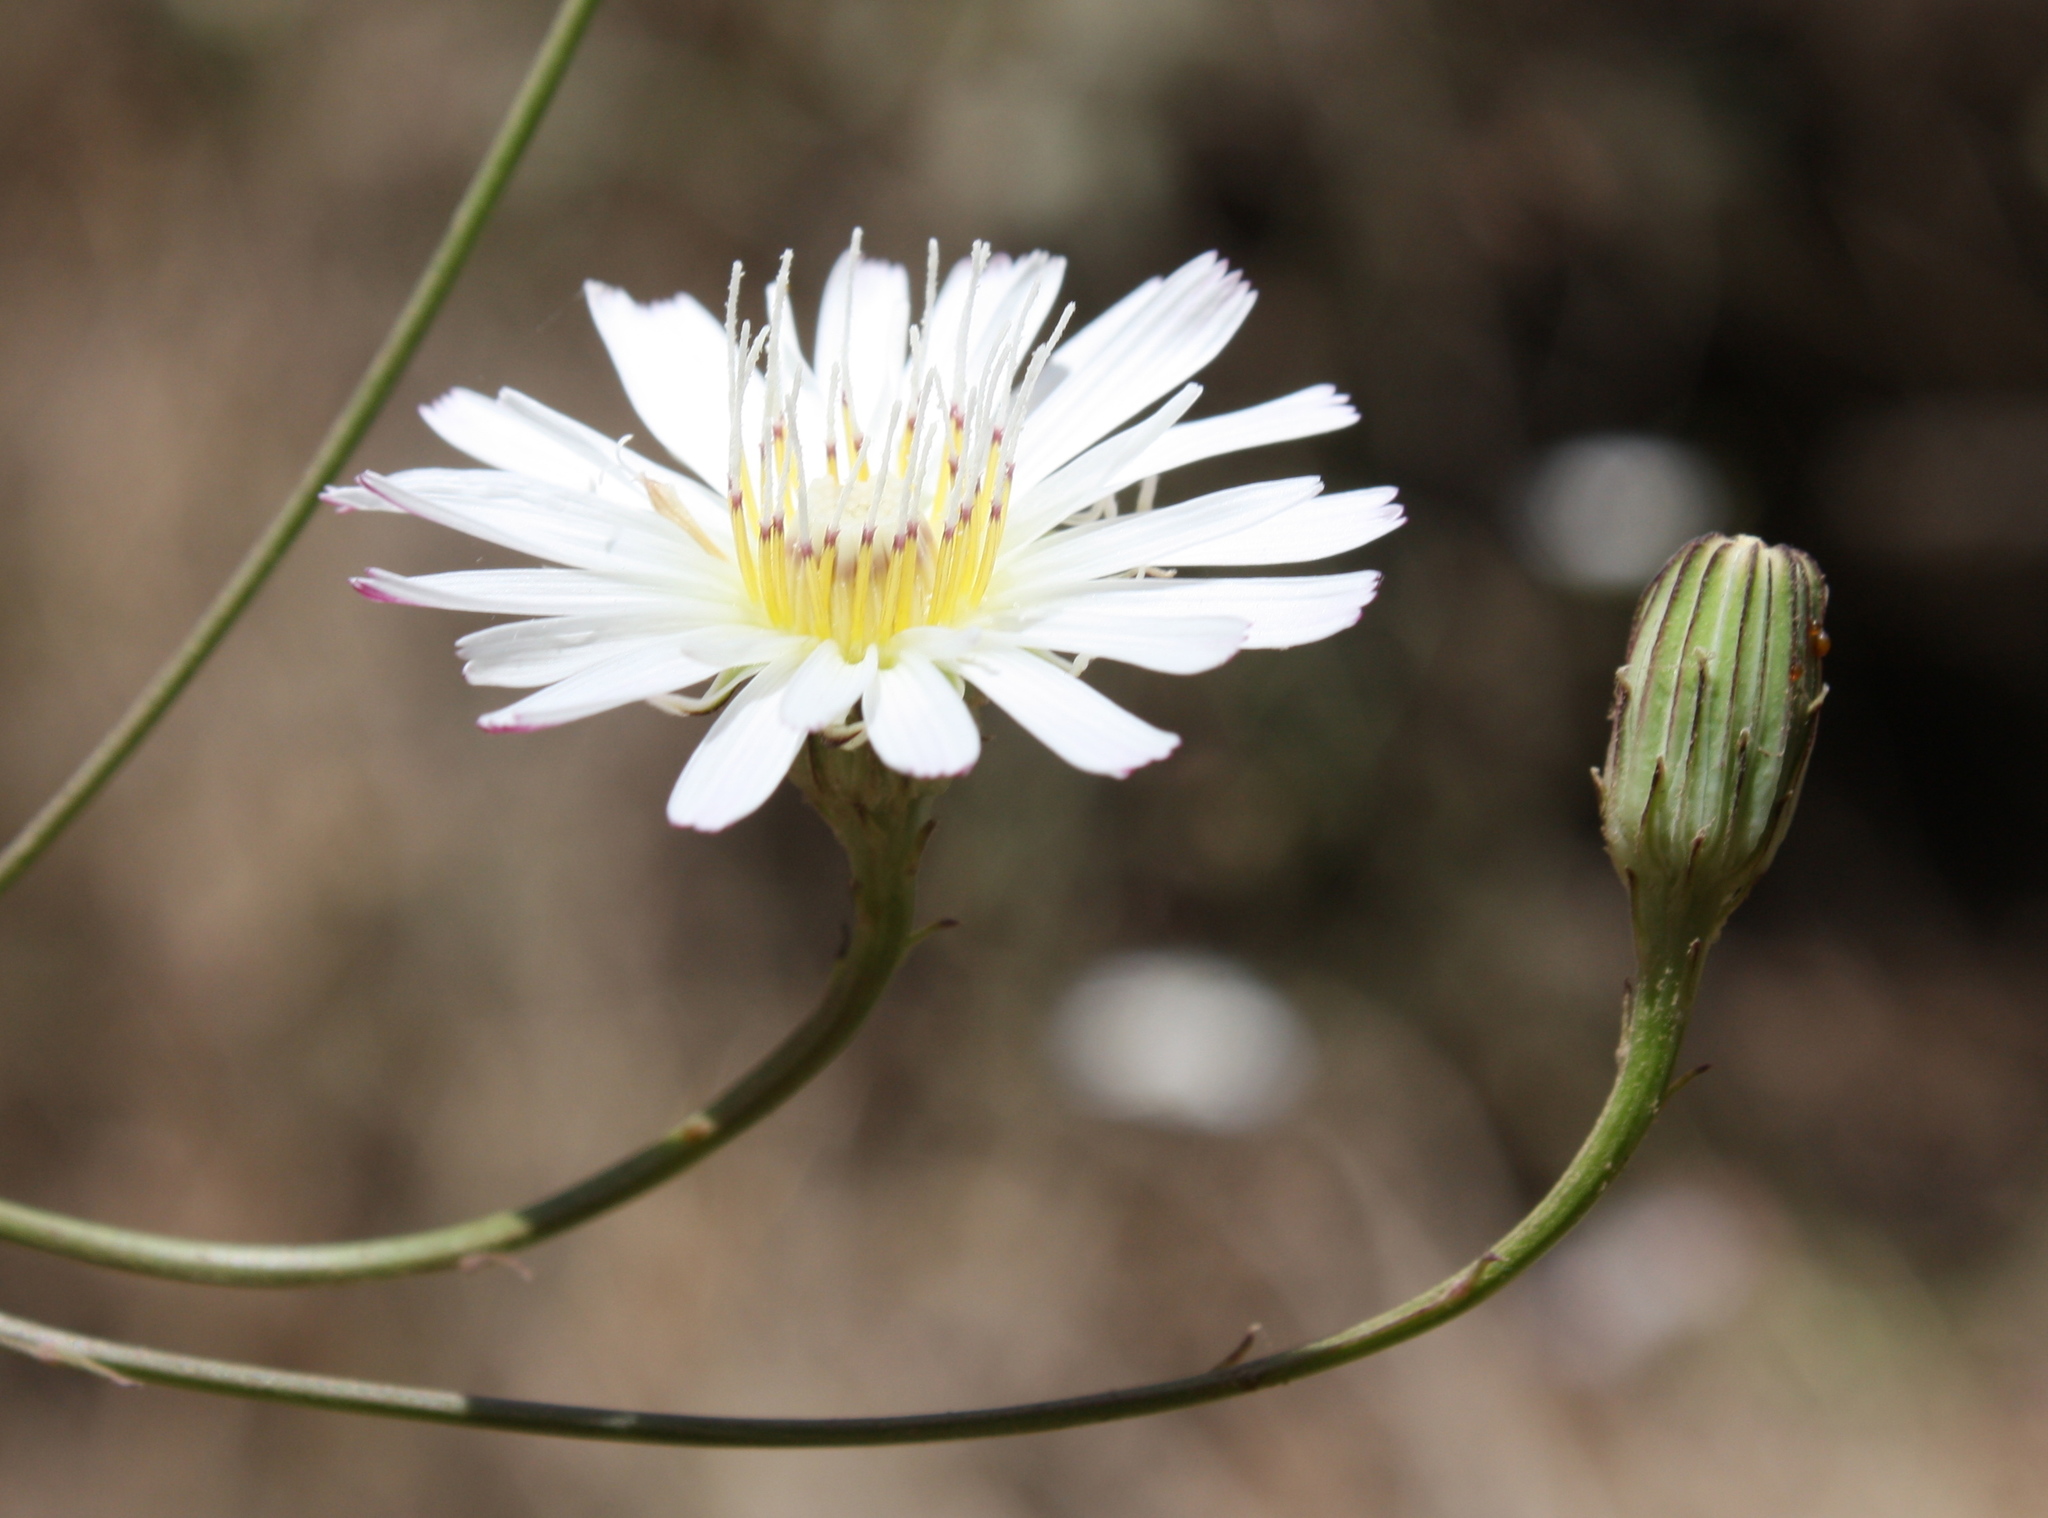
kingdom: Plantae
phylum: Tracheophyta
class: Magnoliopsida
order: Asterales
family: Asteraceae
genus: Malacothrix
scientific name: Malacothrix saxatilis
